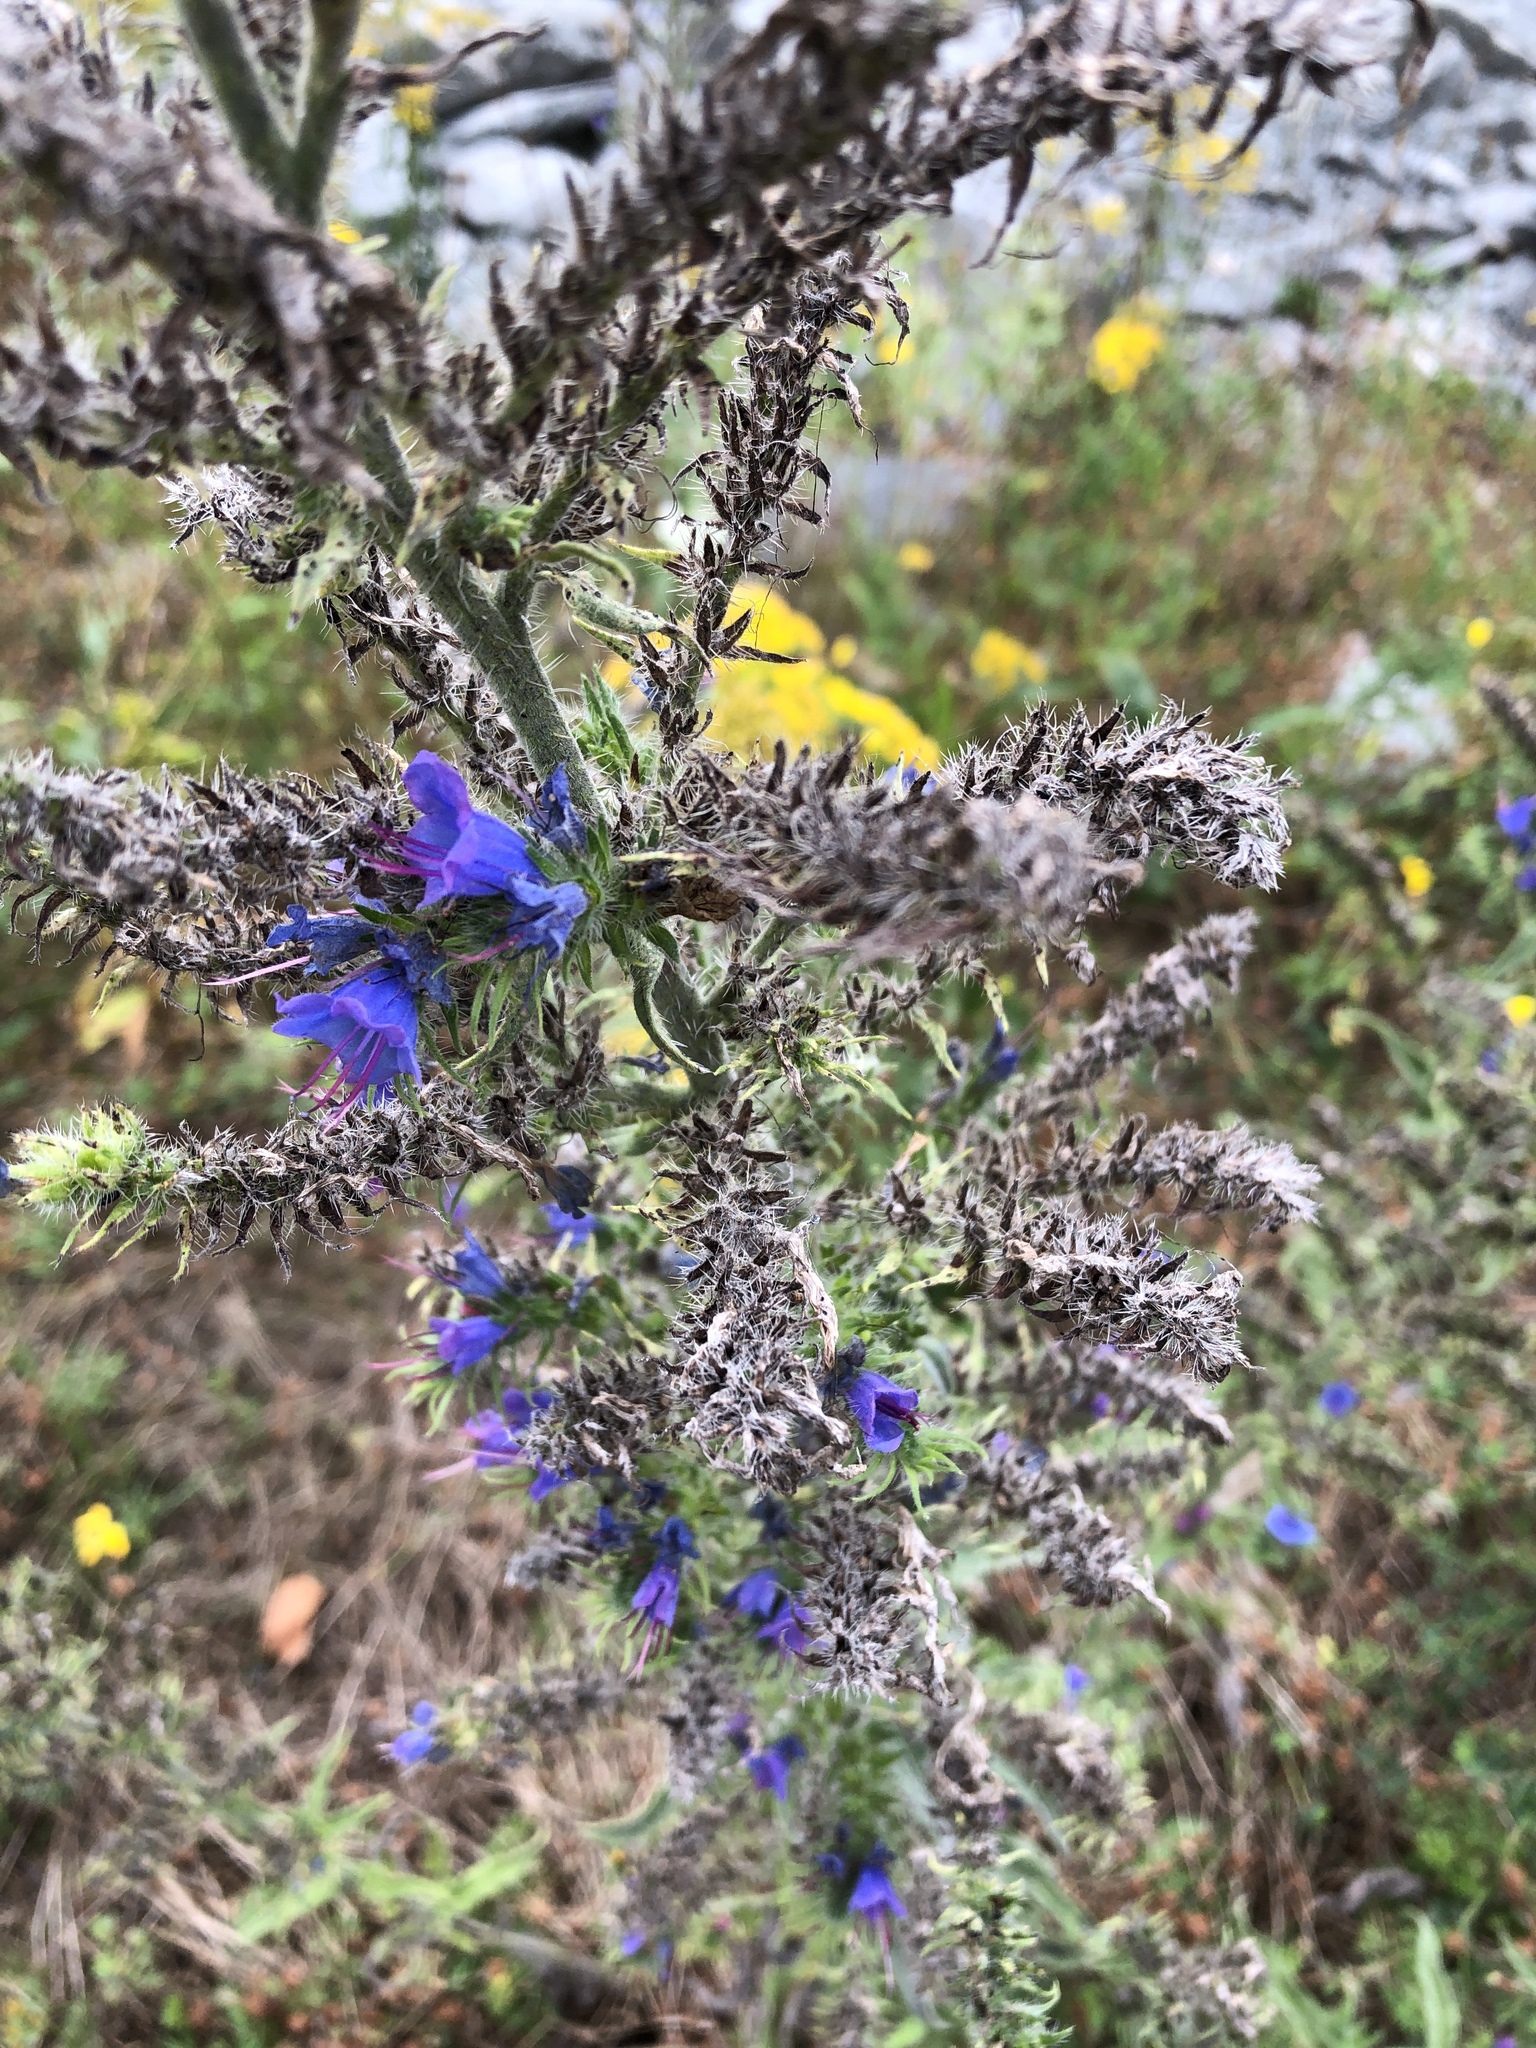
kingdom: Plantae
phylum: Tracheophyta
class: Magnoliopsida
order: Boraginales
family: Boraginaceae
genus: Echium
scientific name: Echium vulgare
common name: Common viper's bugloss
